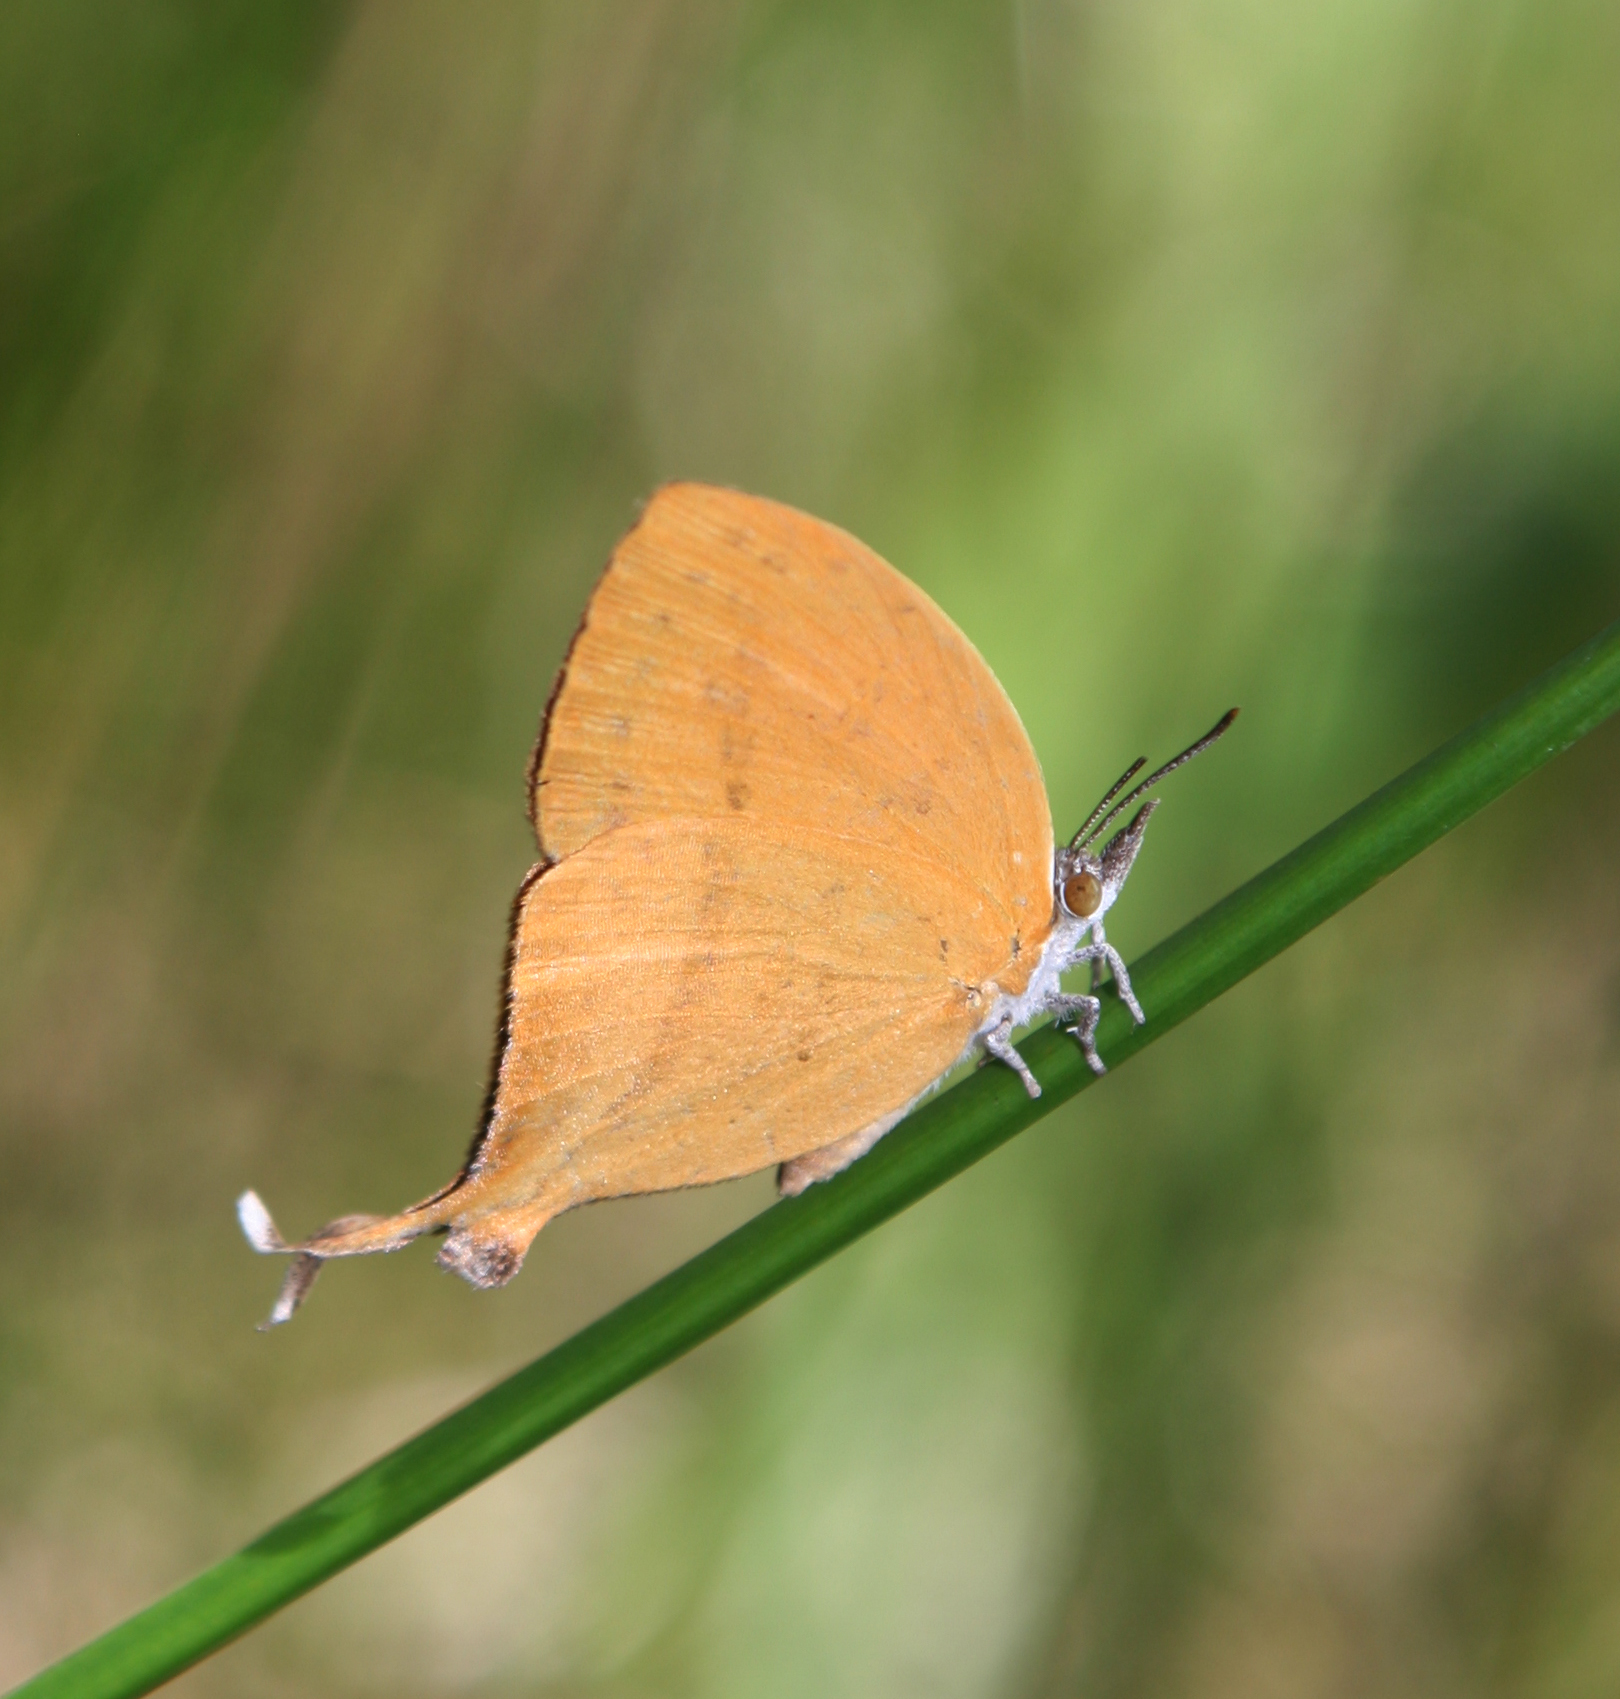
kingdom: Animalia
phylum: Arthropoda
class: Insecta
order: Lepidoptera
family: Lycaenidae
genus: Loxura
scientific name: Loxura atymnus
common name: Common yamfly
